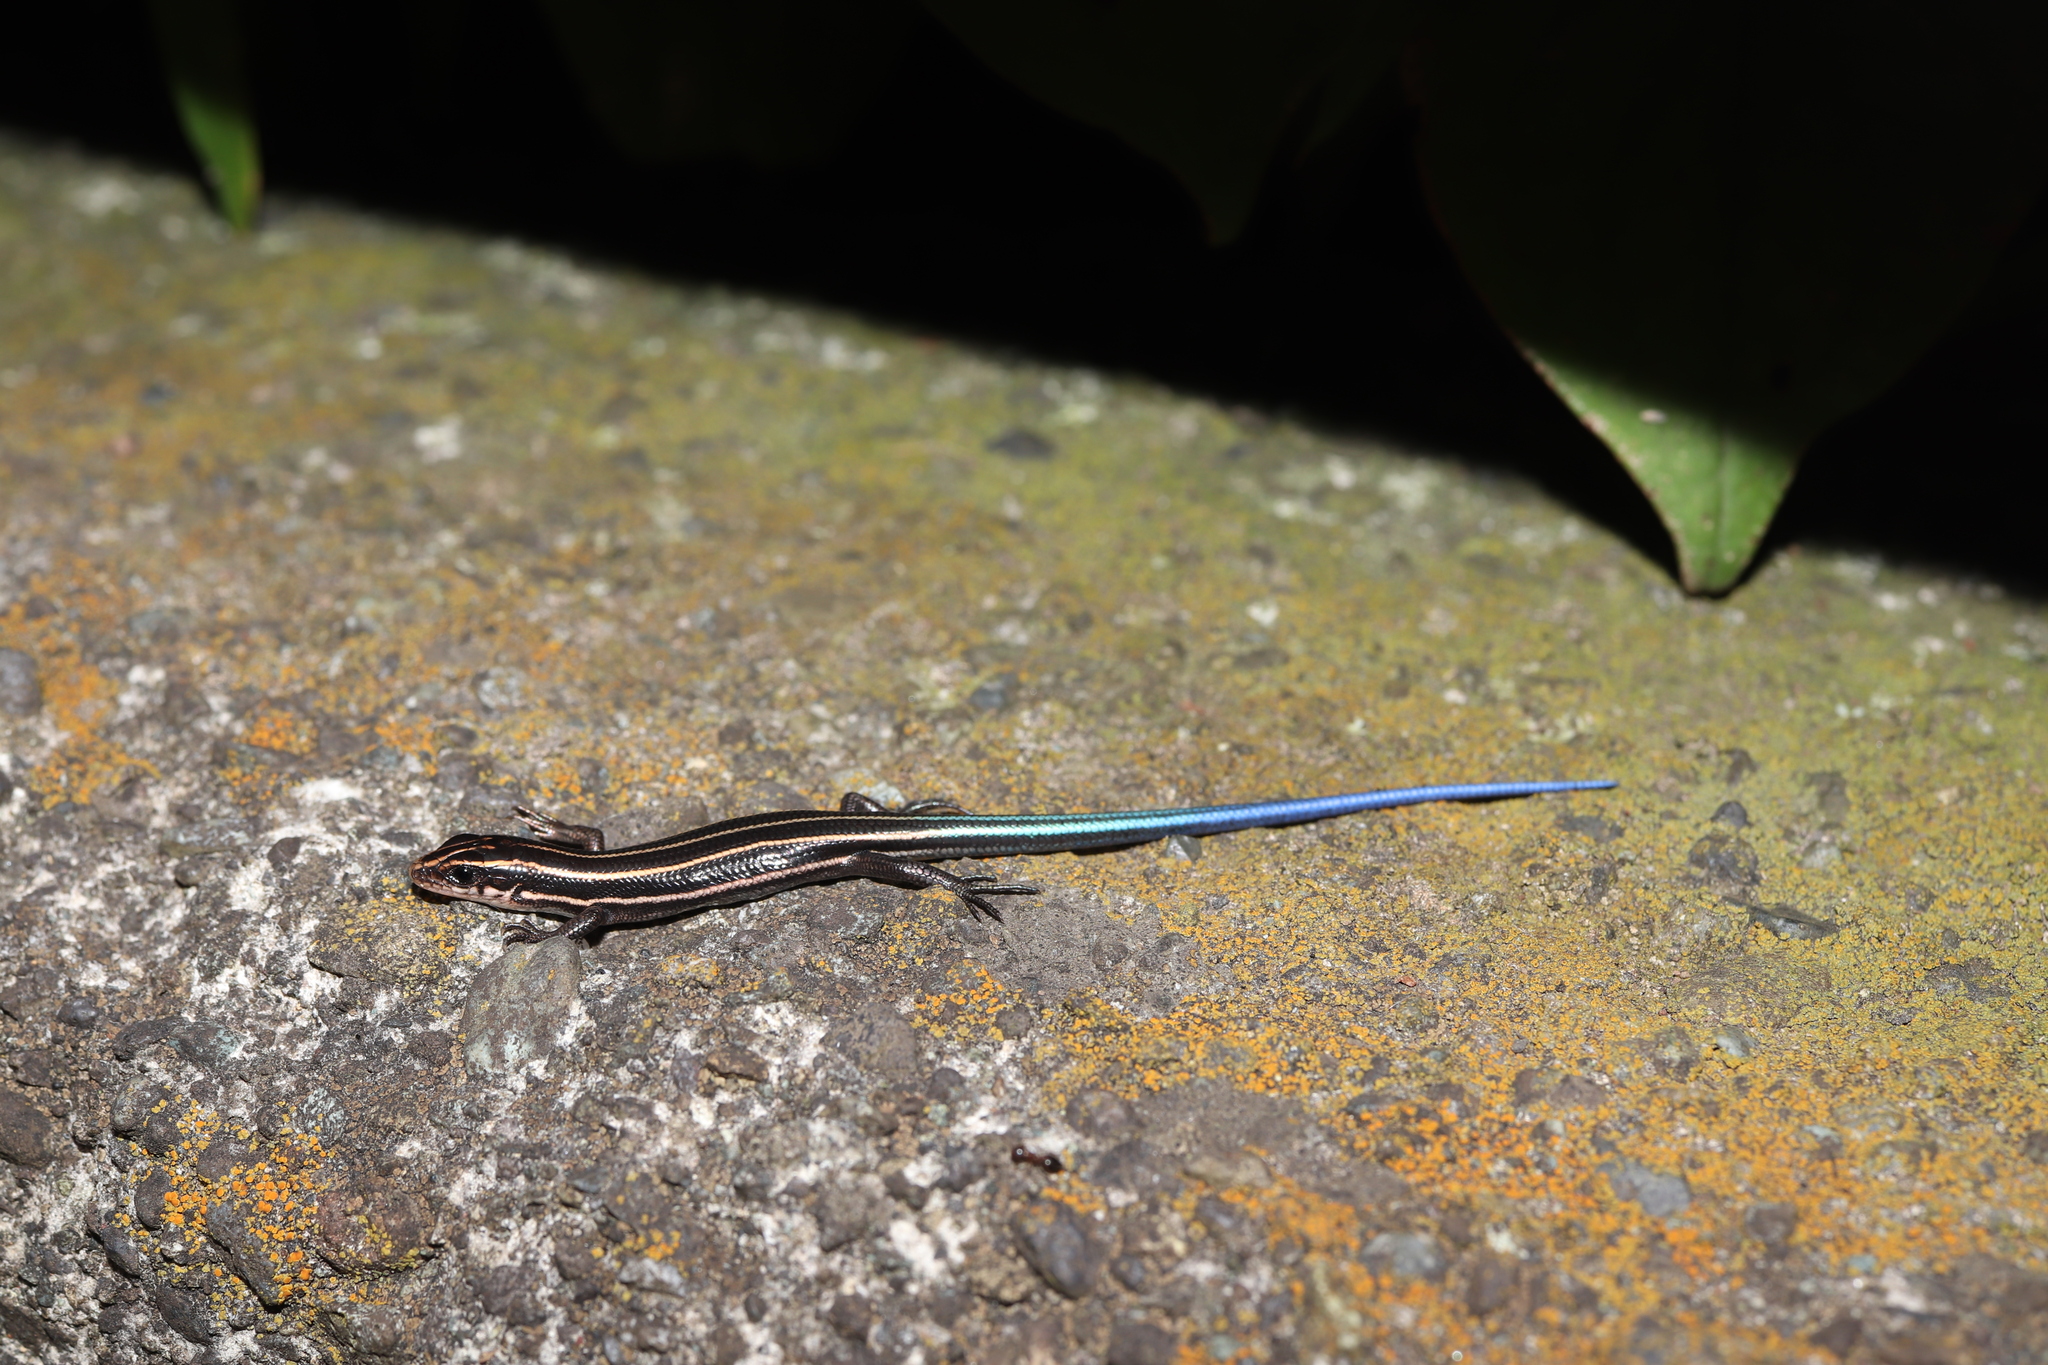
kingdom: Animalia
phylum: Chordata
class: Squamata
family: Scincidae
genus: Plestiodon
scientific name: Plestiodon finitimus
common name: Far eastern skink
